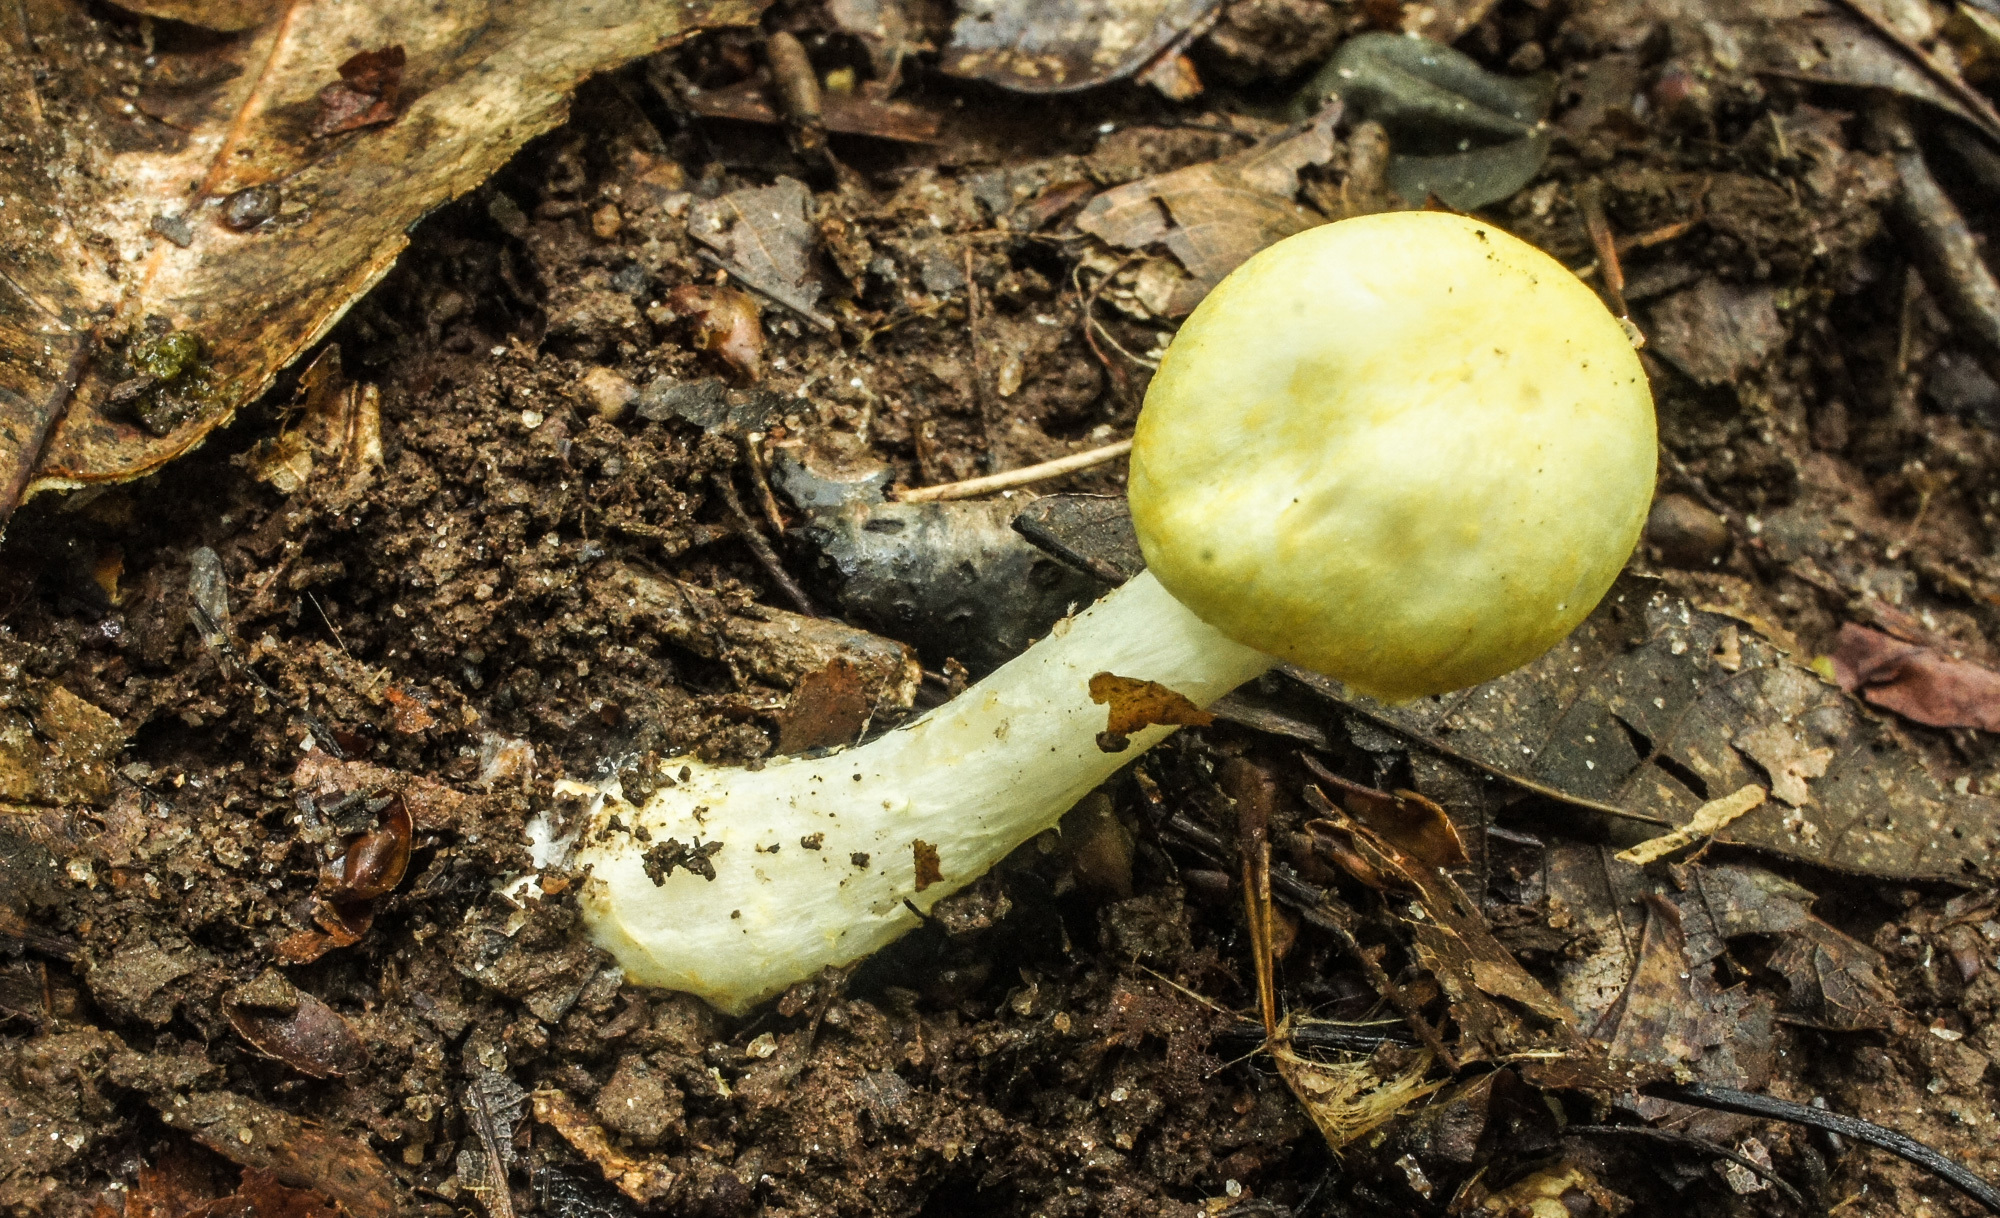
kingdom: Fungi
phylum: Basidiomycota
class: Agaricomycetes
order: Agaricales
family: Agaricaceae
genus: Agaricus
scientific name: Agaricus
